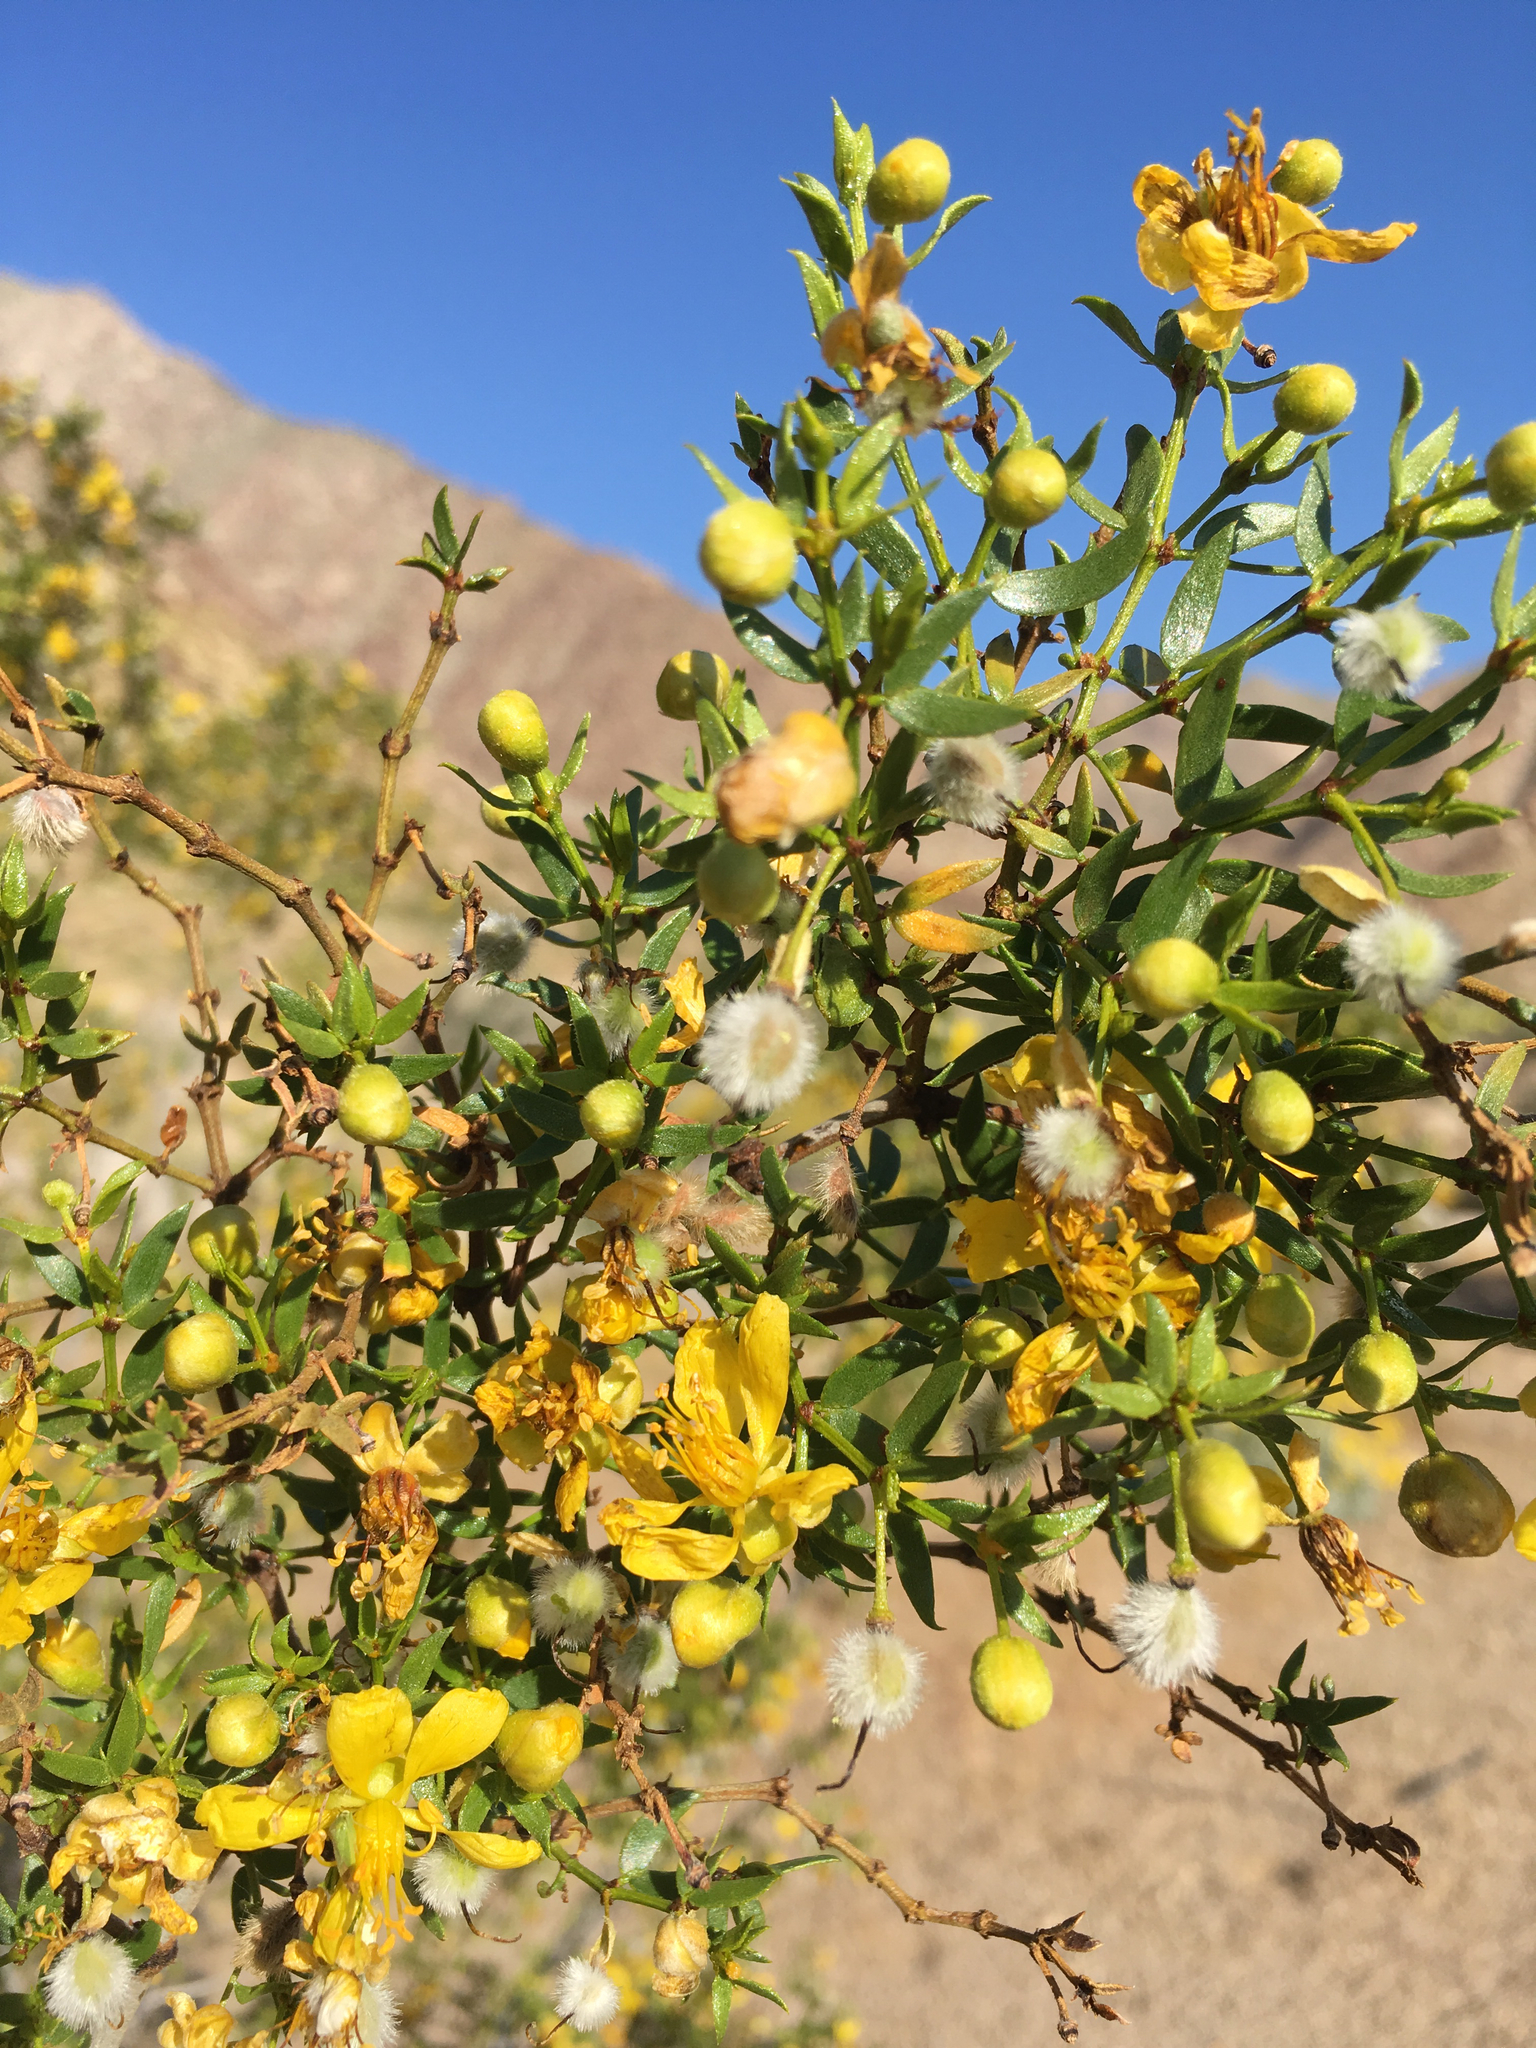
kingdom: Plantae
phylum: Tracheophyta
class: Magnoliopsida
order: Zygophyllales
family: Zygophyllaceae
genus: Larrea
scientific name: Larrea tridentata
